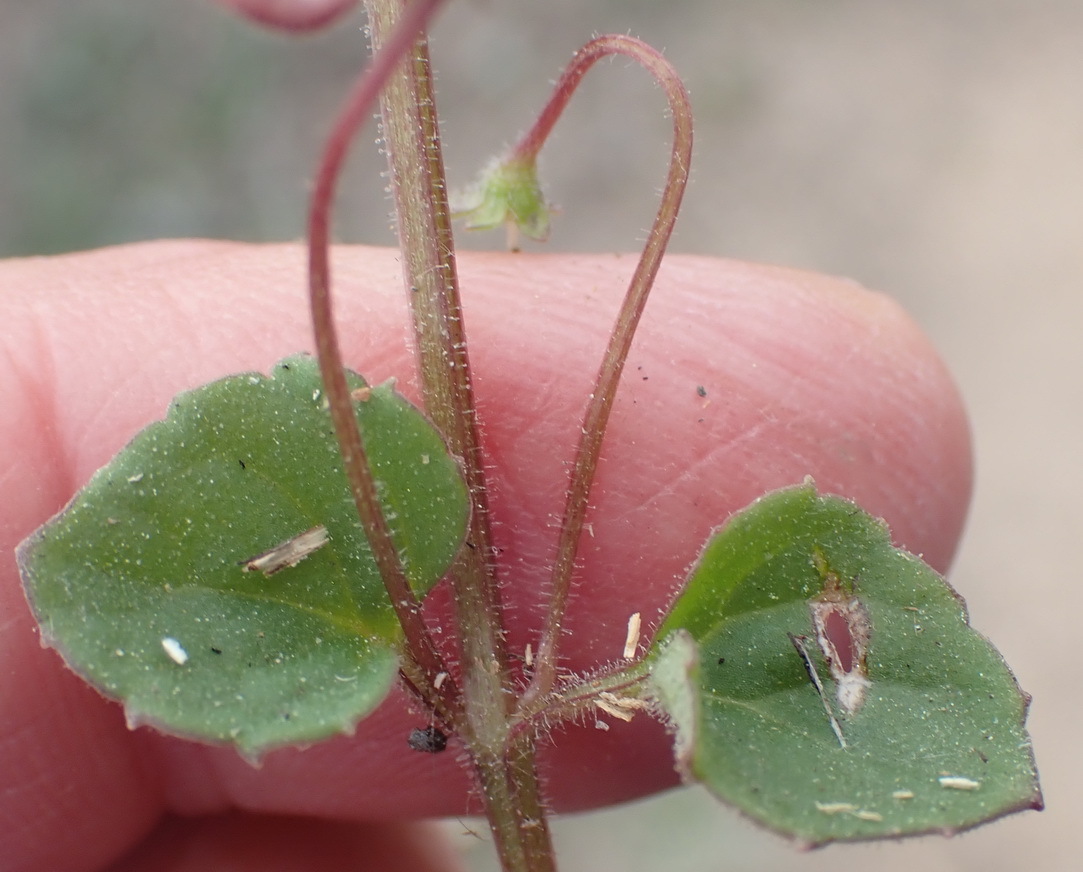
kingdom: Plantae
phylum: Tracheophyta
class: Magnoliopsida
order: Lamiales
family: Scrophulariaceae
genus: Diclis
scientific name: Diclis reptans
